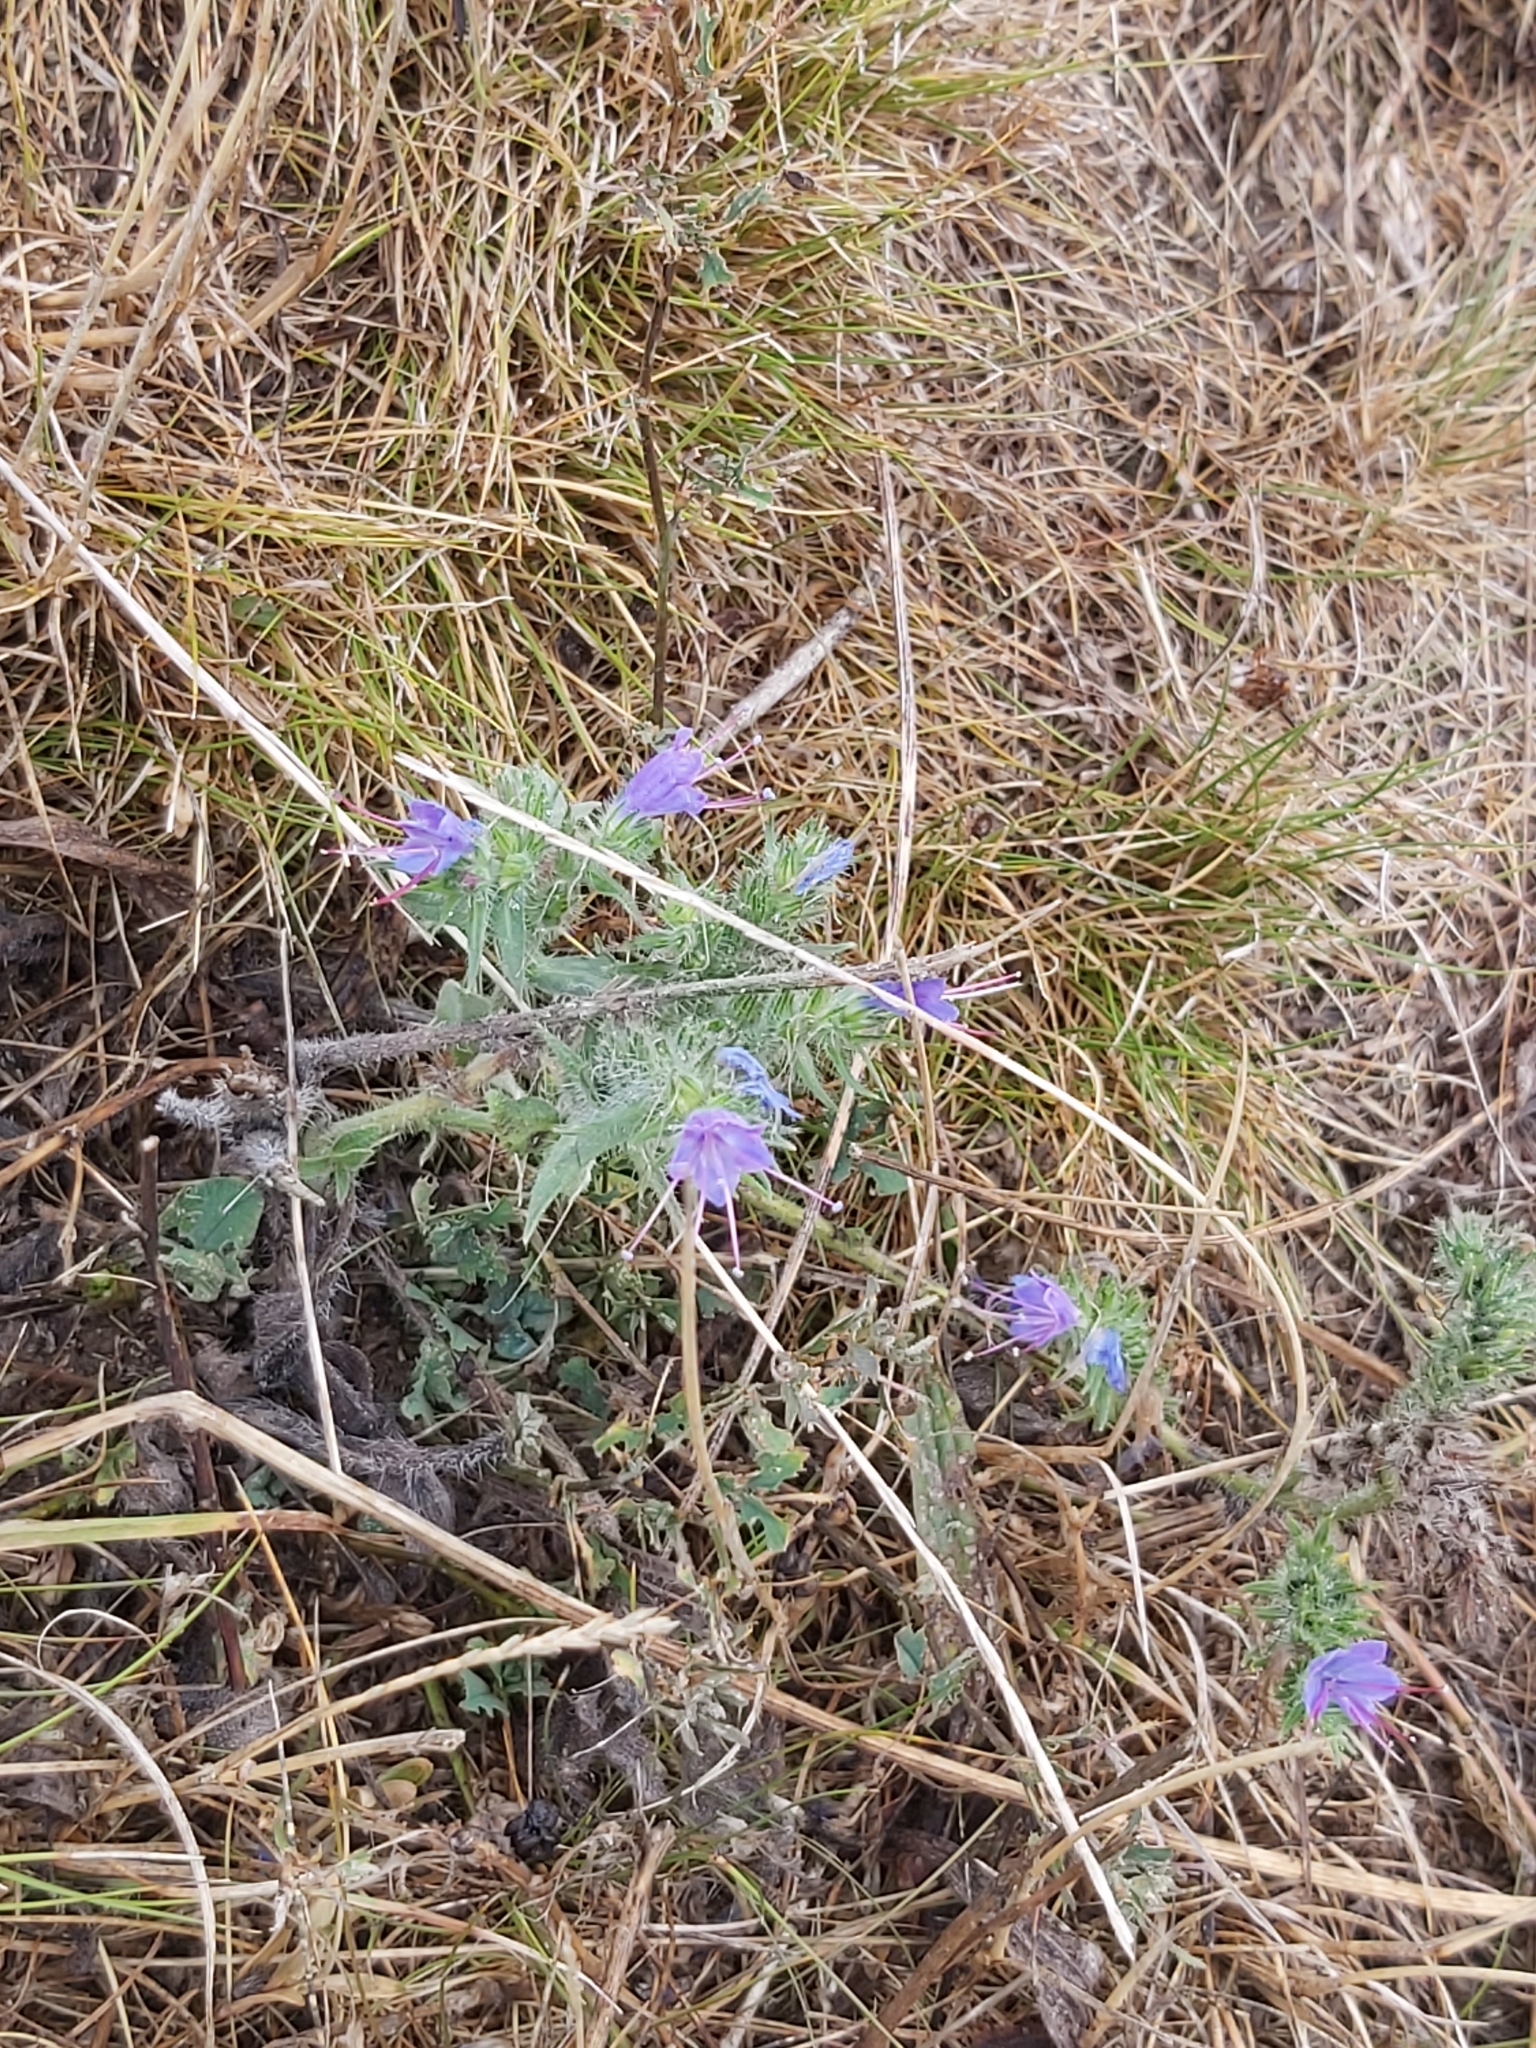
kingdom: Plantae
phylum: Tracheophyta
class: Magnoliopsida
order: Boraginales
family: Boraginaceae
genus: Echium
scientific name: Echium vulgare
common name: Common viper's bugloss
